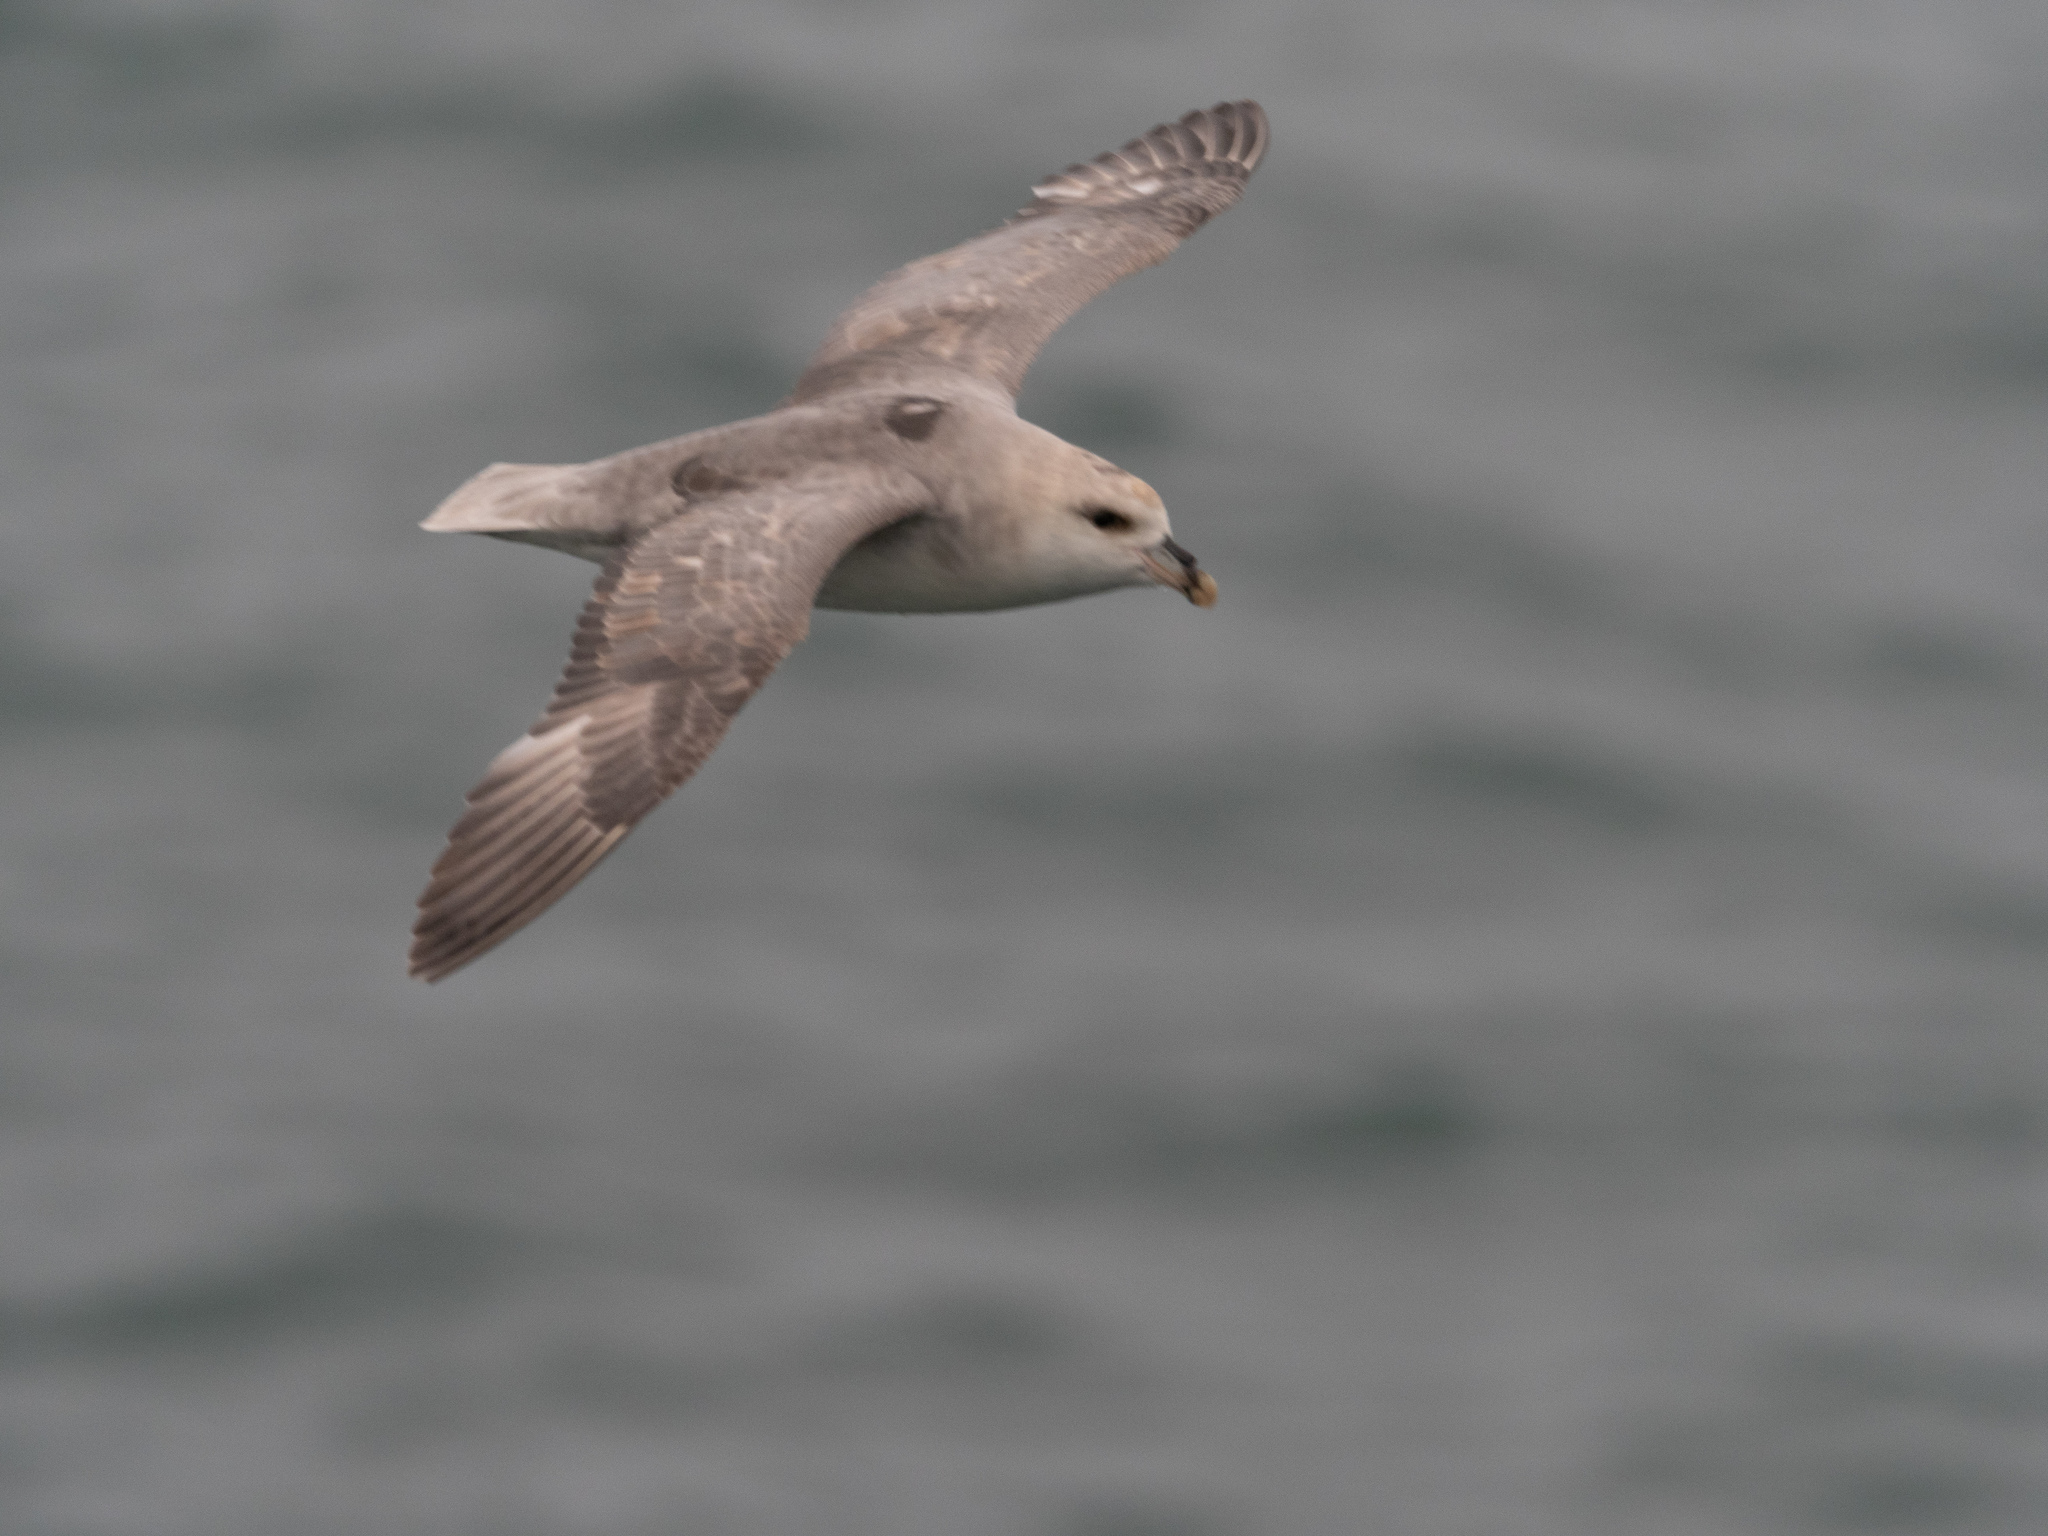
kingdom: Animalia
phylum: Chordata
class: Aves
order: Procellariiformes
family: Procellariidae
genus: Fulmarus
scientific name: Fulmarus glacialis
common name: Northern fulmar
